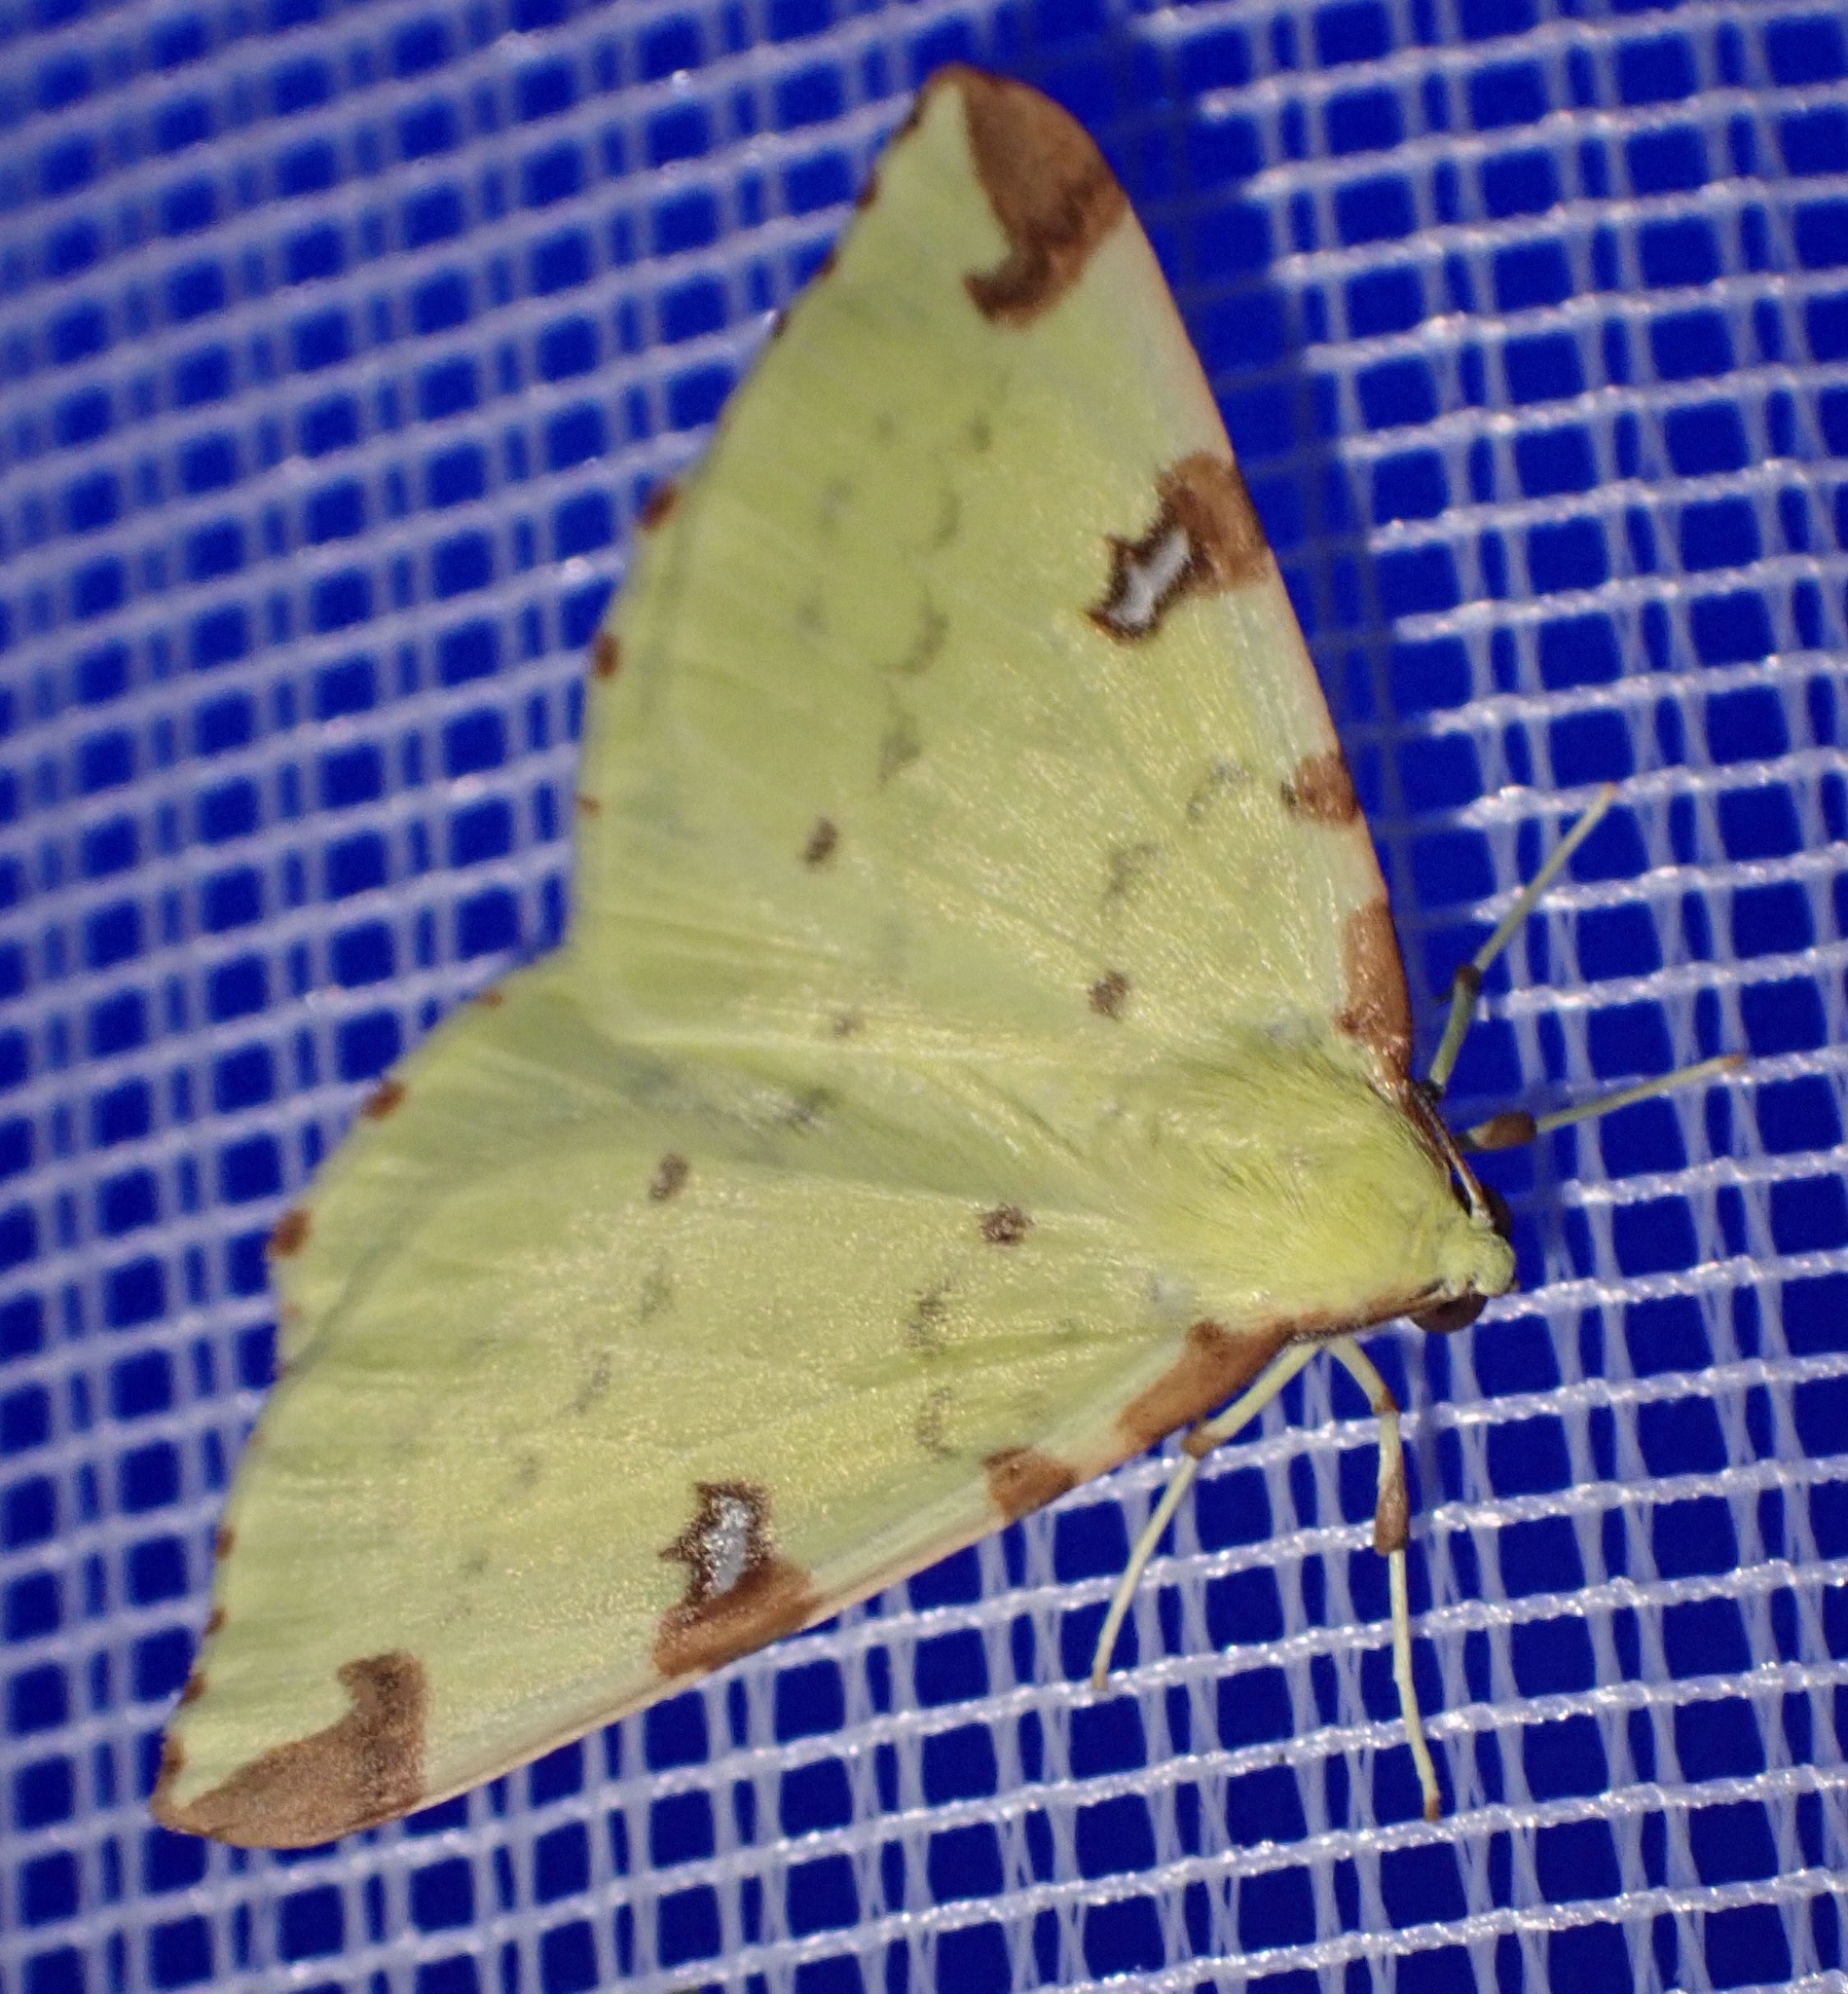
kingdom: Animalia
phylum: Arthropoda
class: Insecta
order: Lepidoptera
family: Geometridae
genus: Opisthograptis
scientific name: Opisthograptis luteolata
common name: Brimstone moth
